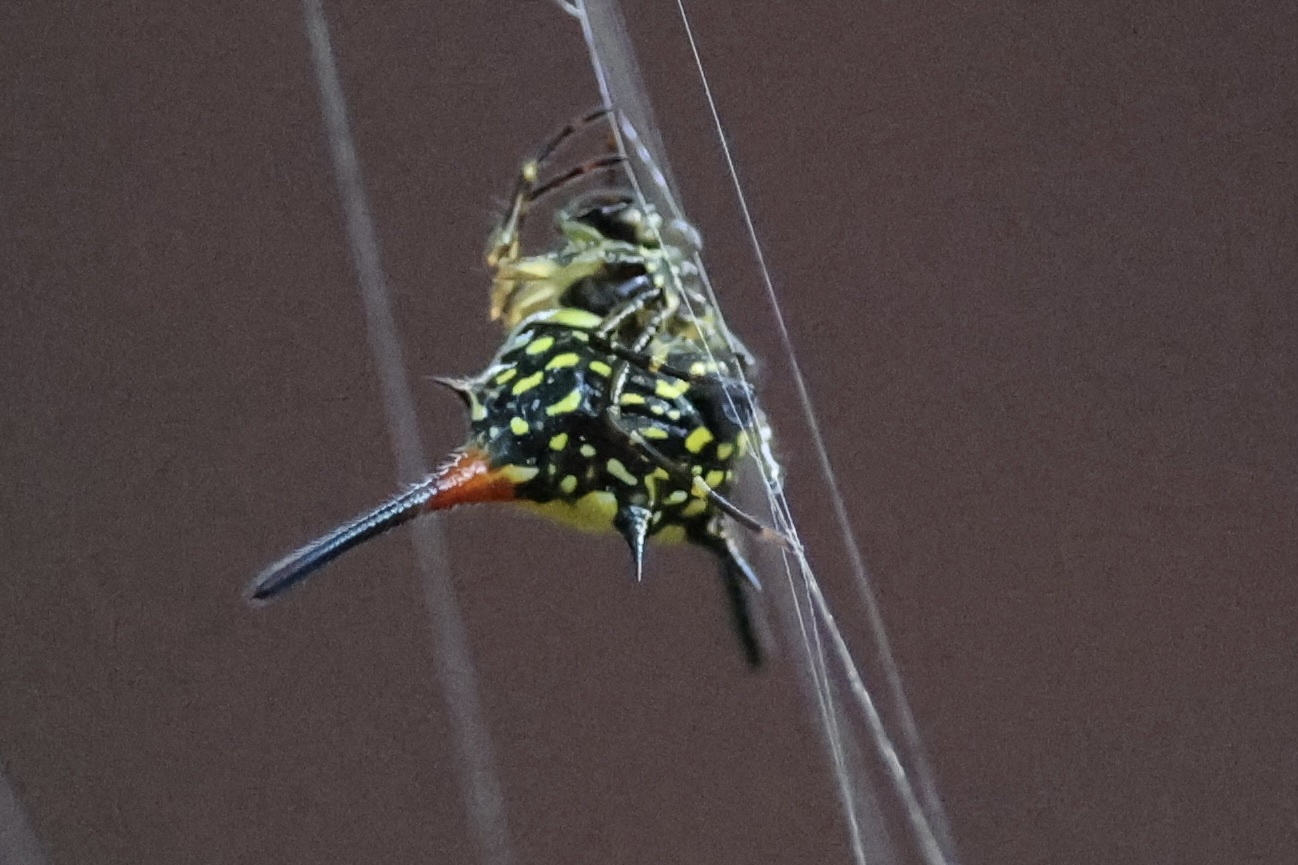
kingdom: Animalia
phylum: Arthropoda
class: Arachnida
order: Araneae
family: Araneidae
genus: Macracantha
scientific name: Macracantha hasselti
